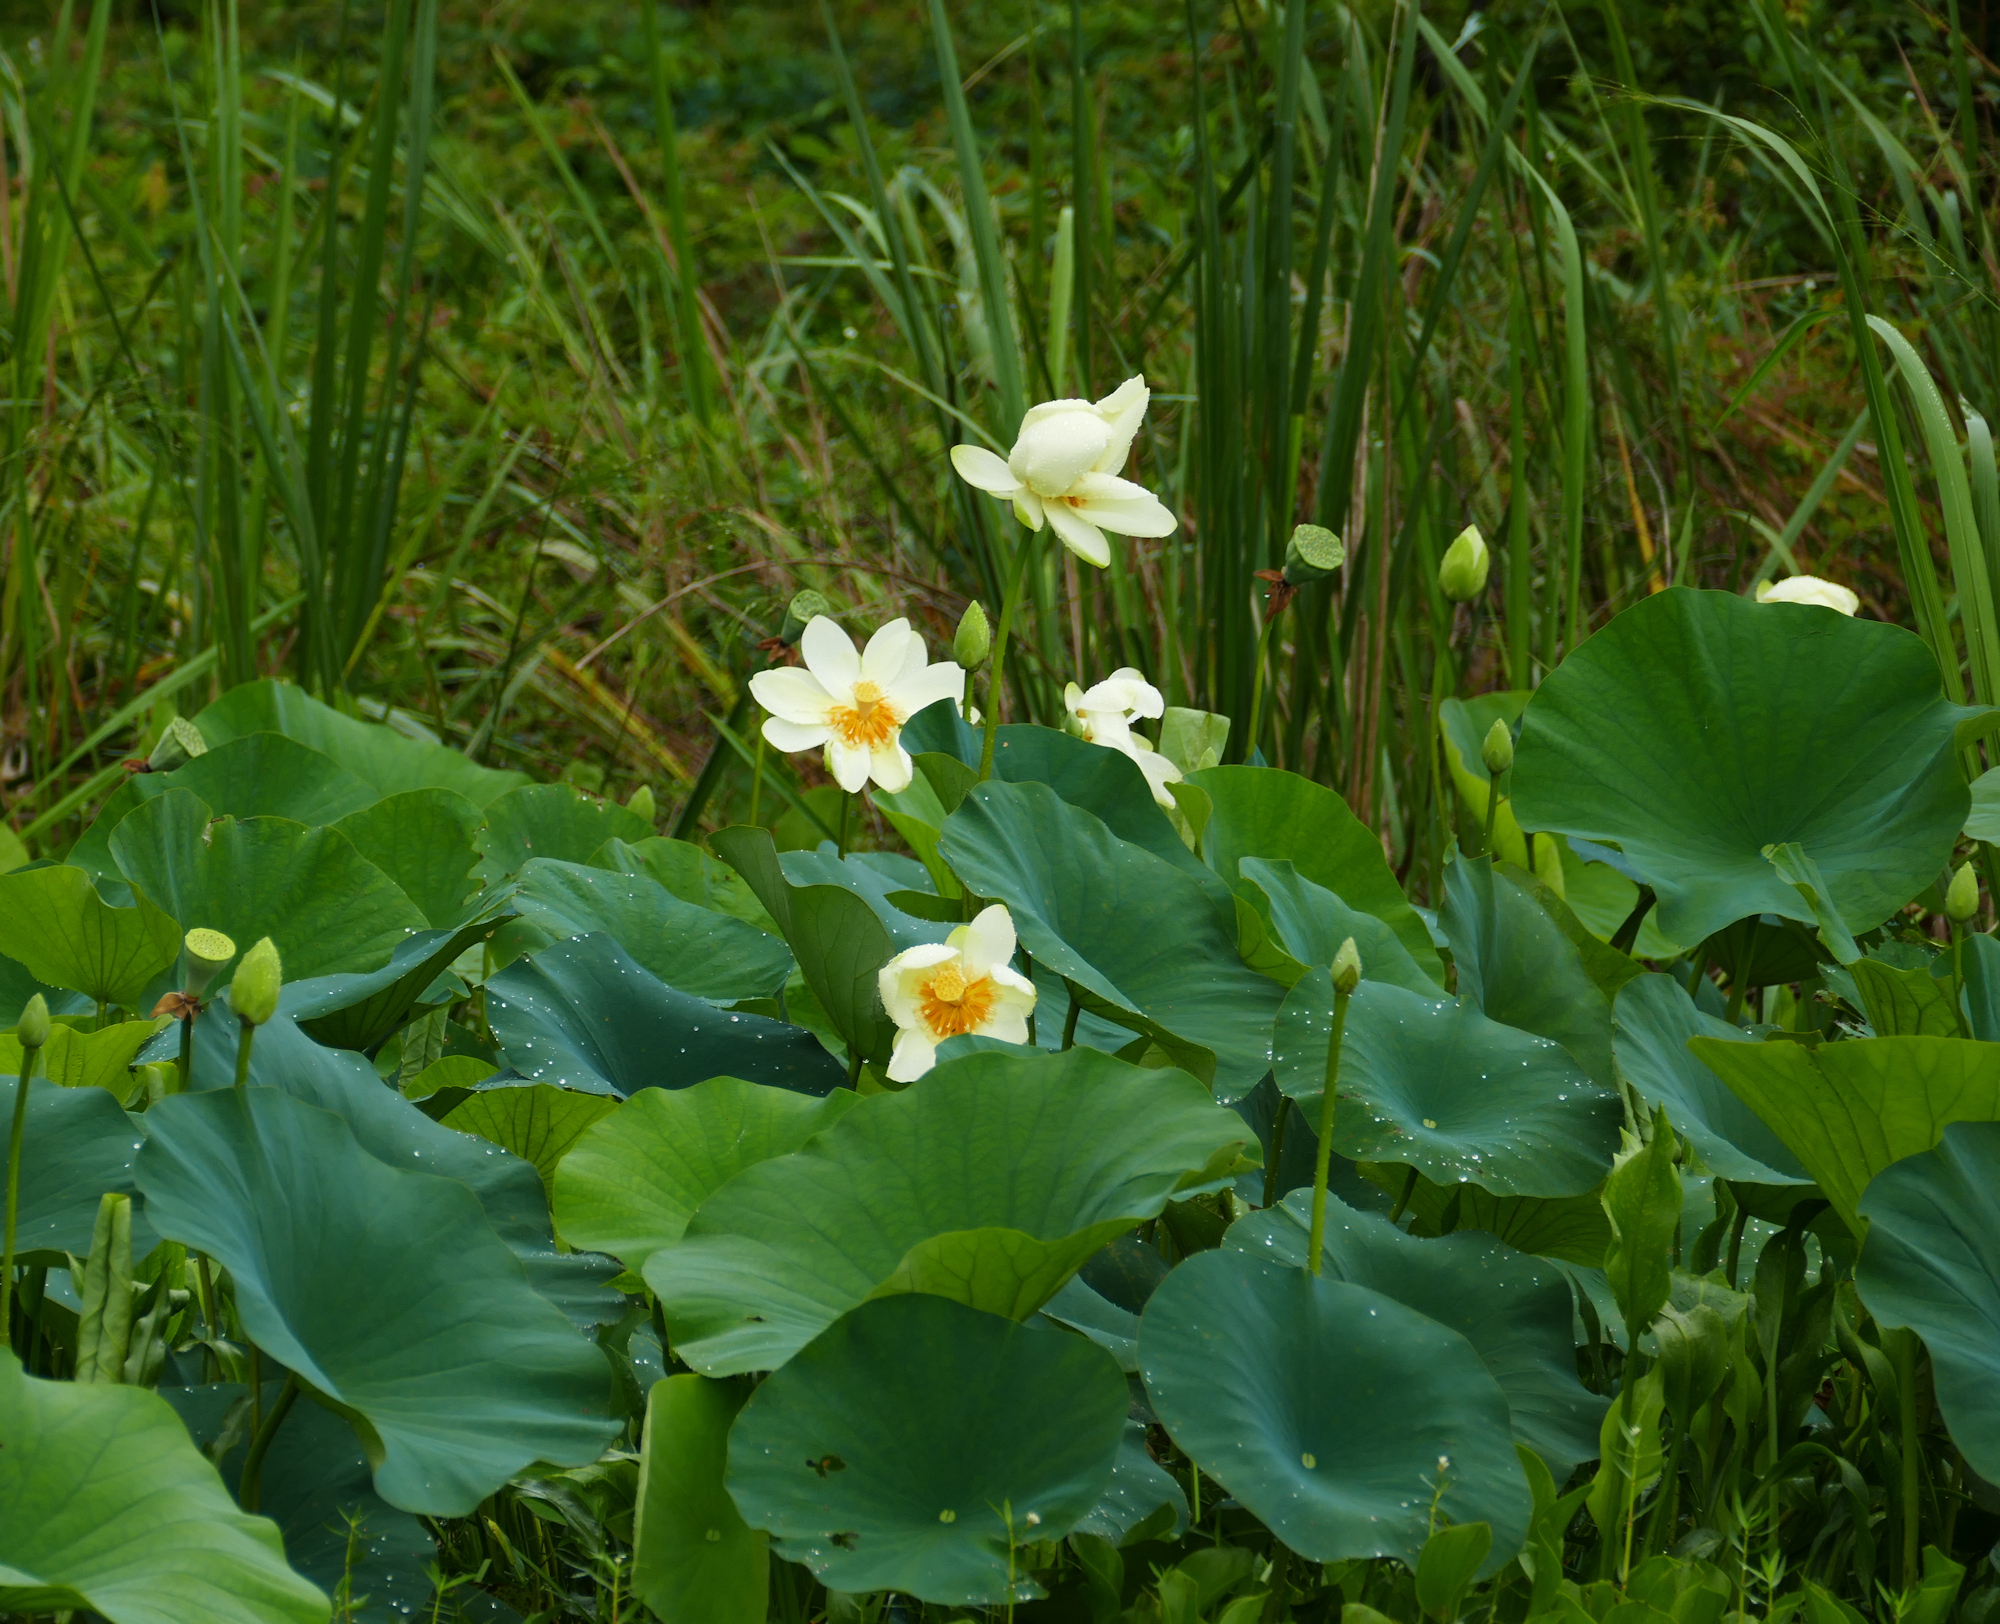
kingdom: Plantae
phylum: Tracheophyta
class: Magnoliopsida
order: Proteales
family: Nelumbonaceae
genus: Nelumbo
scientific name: Nelumbo lutea
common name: American lotus
